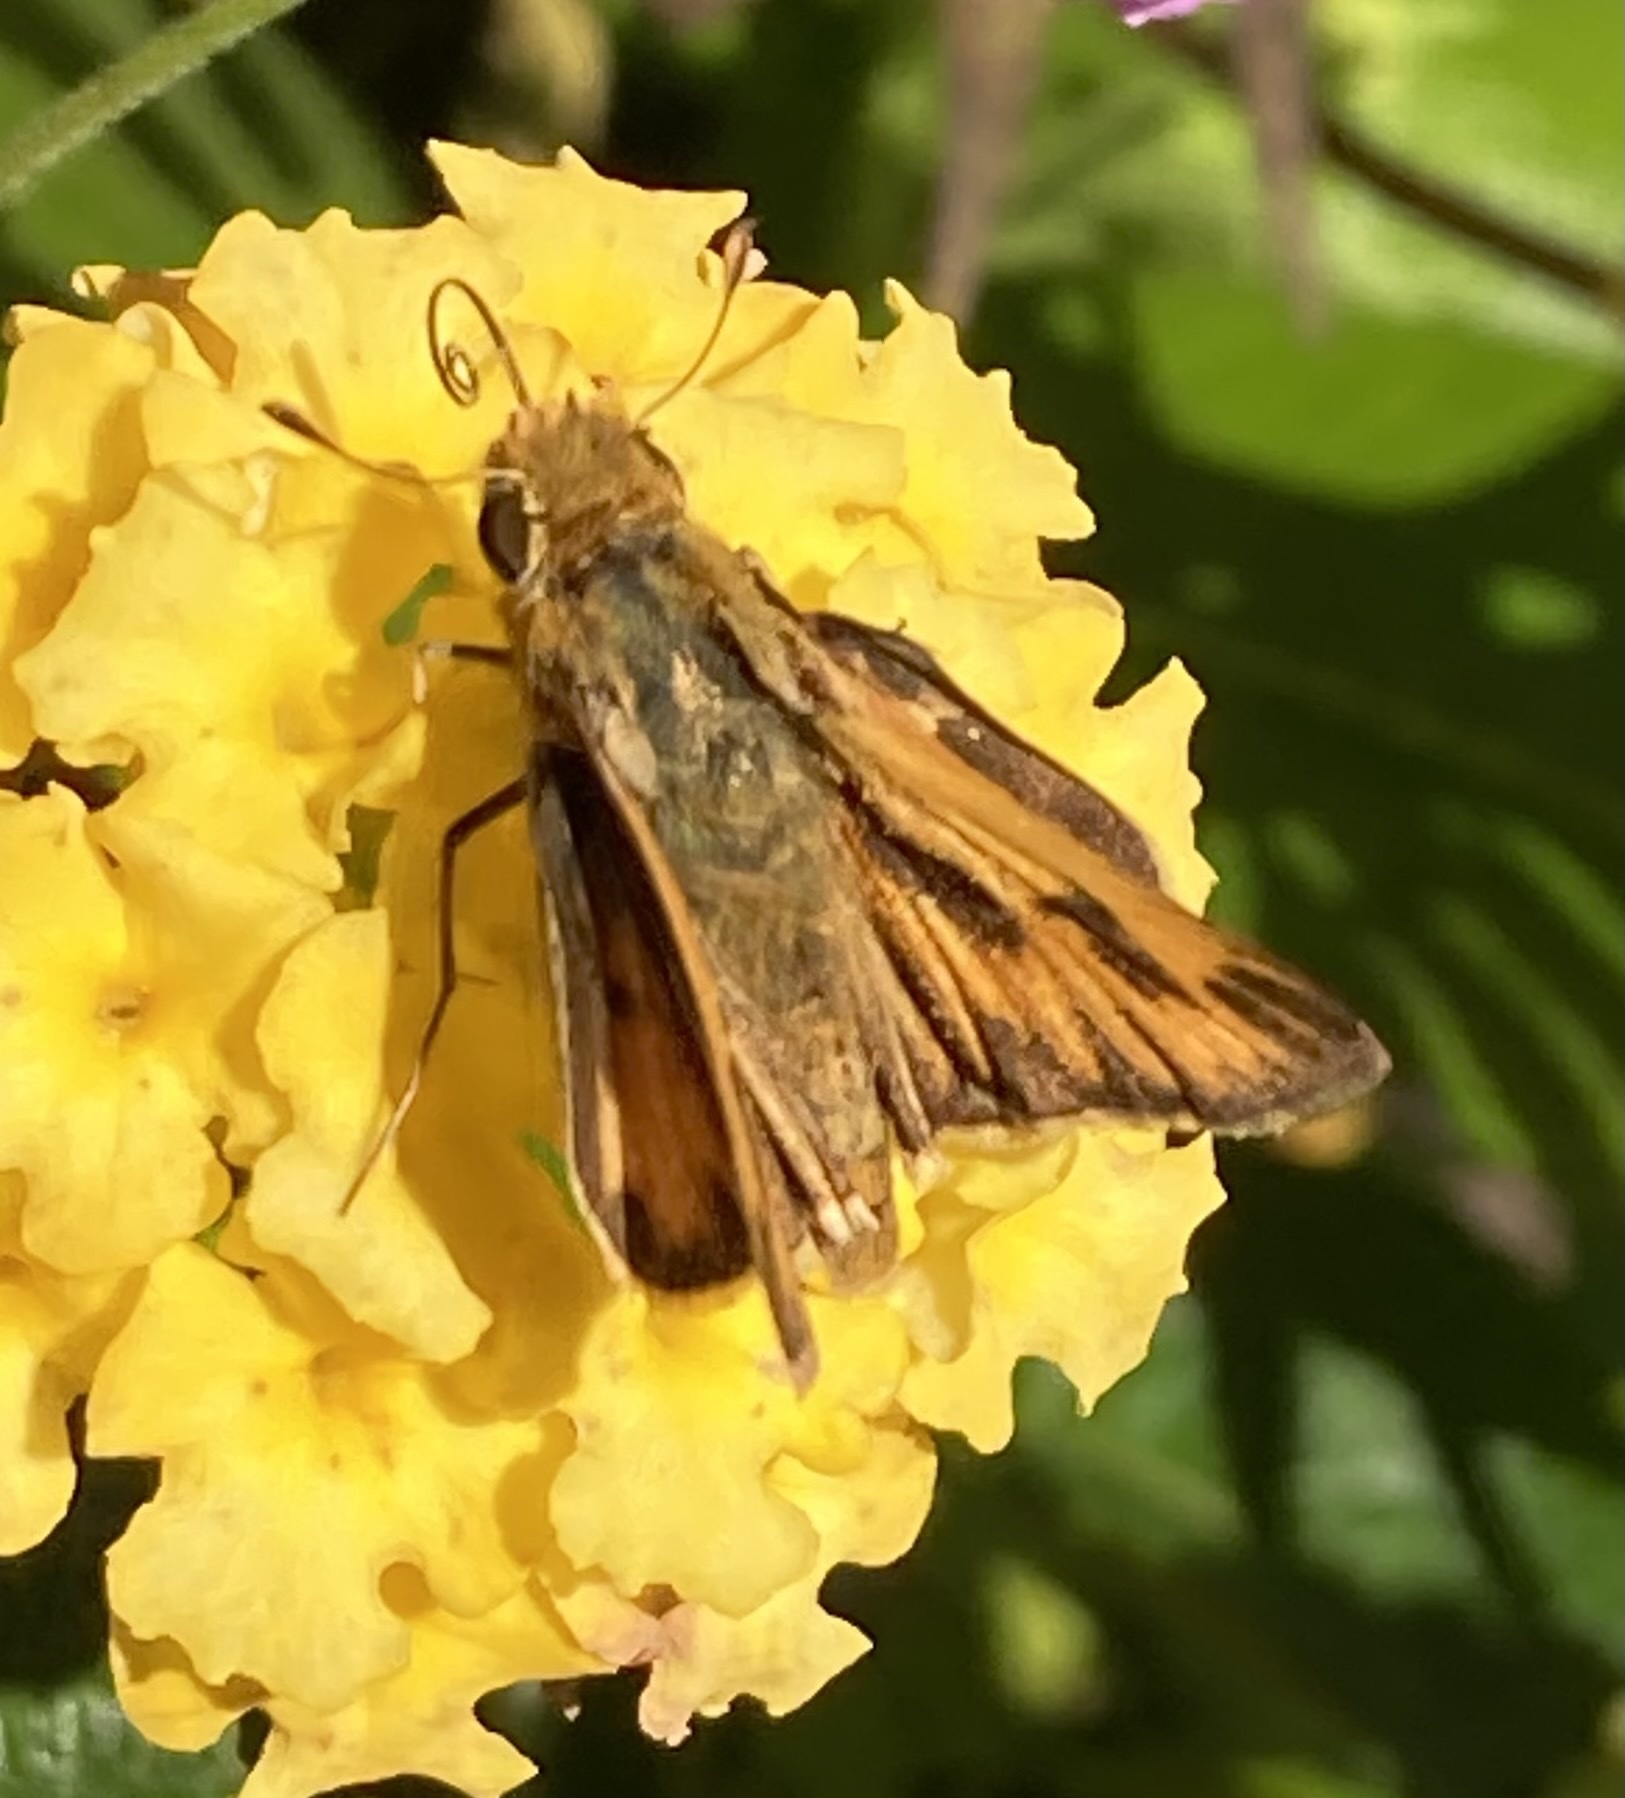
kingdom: Animalia
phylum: Arthropoda
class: Insecta
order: Lepidoptera
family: Hesperiidae
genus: Hylephila
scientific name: Hylephila phyleus
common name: Fiery skipper
